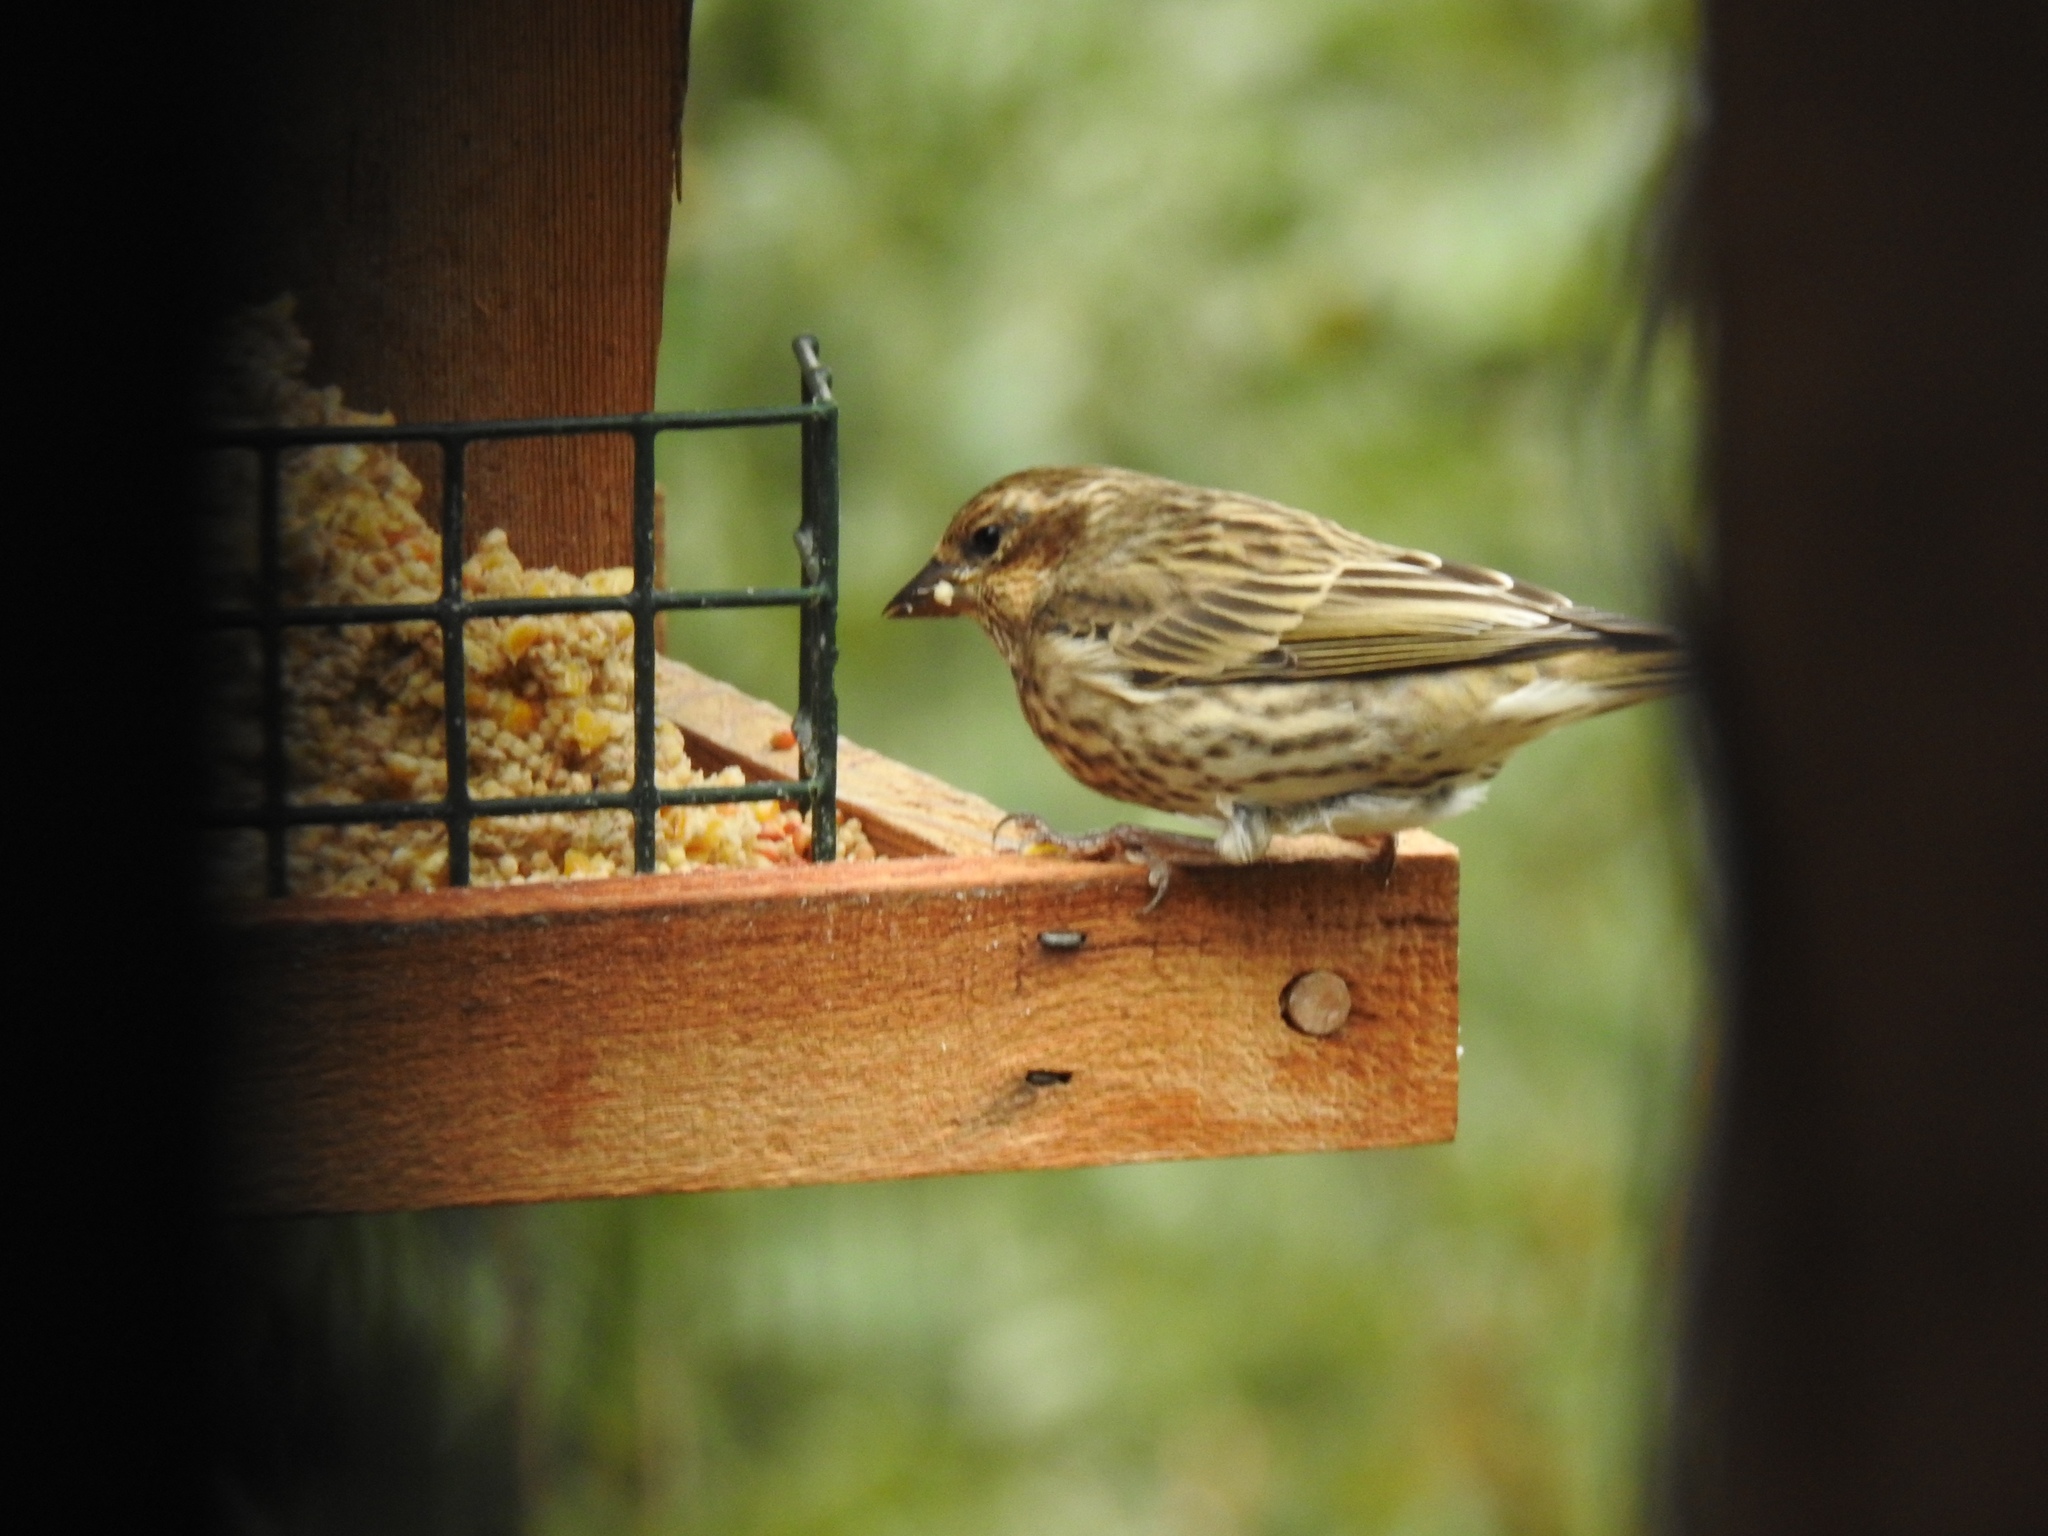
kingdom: Animalia
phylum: Chordata
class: Aves
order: Passeriformes
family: Fringillidae
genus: Haemorhous
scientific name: Haemorhous cassinii
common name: Cassin's finch
